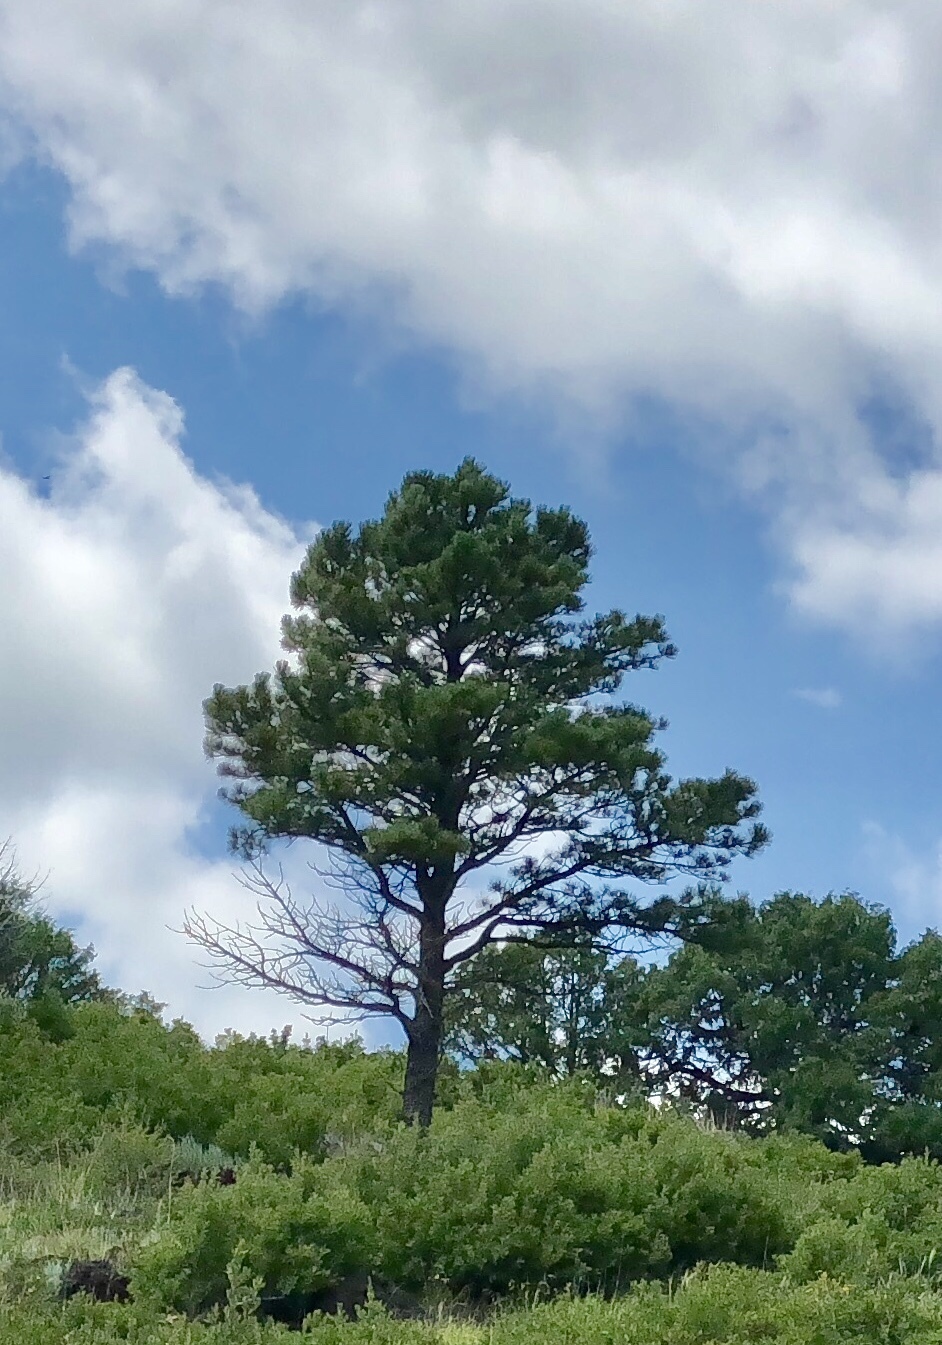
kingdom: Plantae
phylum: Tracheophyta
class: Pinopsida
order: Pinales
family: Pinaceae
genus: Pinus
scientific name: Pinus ponderosa
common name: Western yellow-pine
